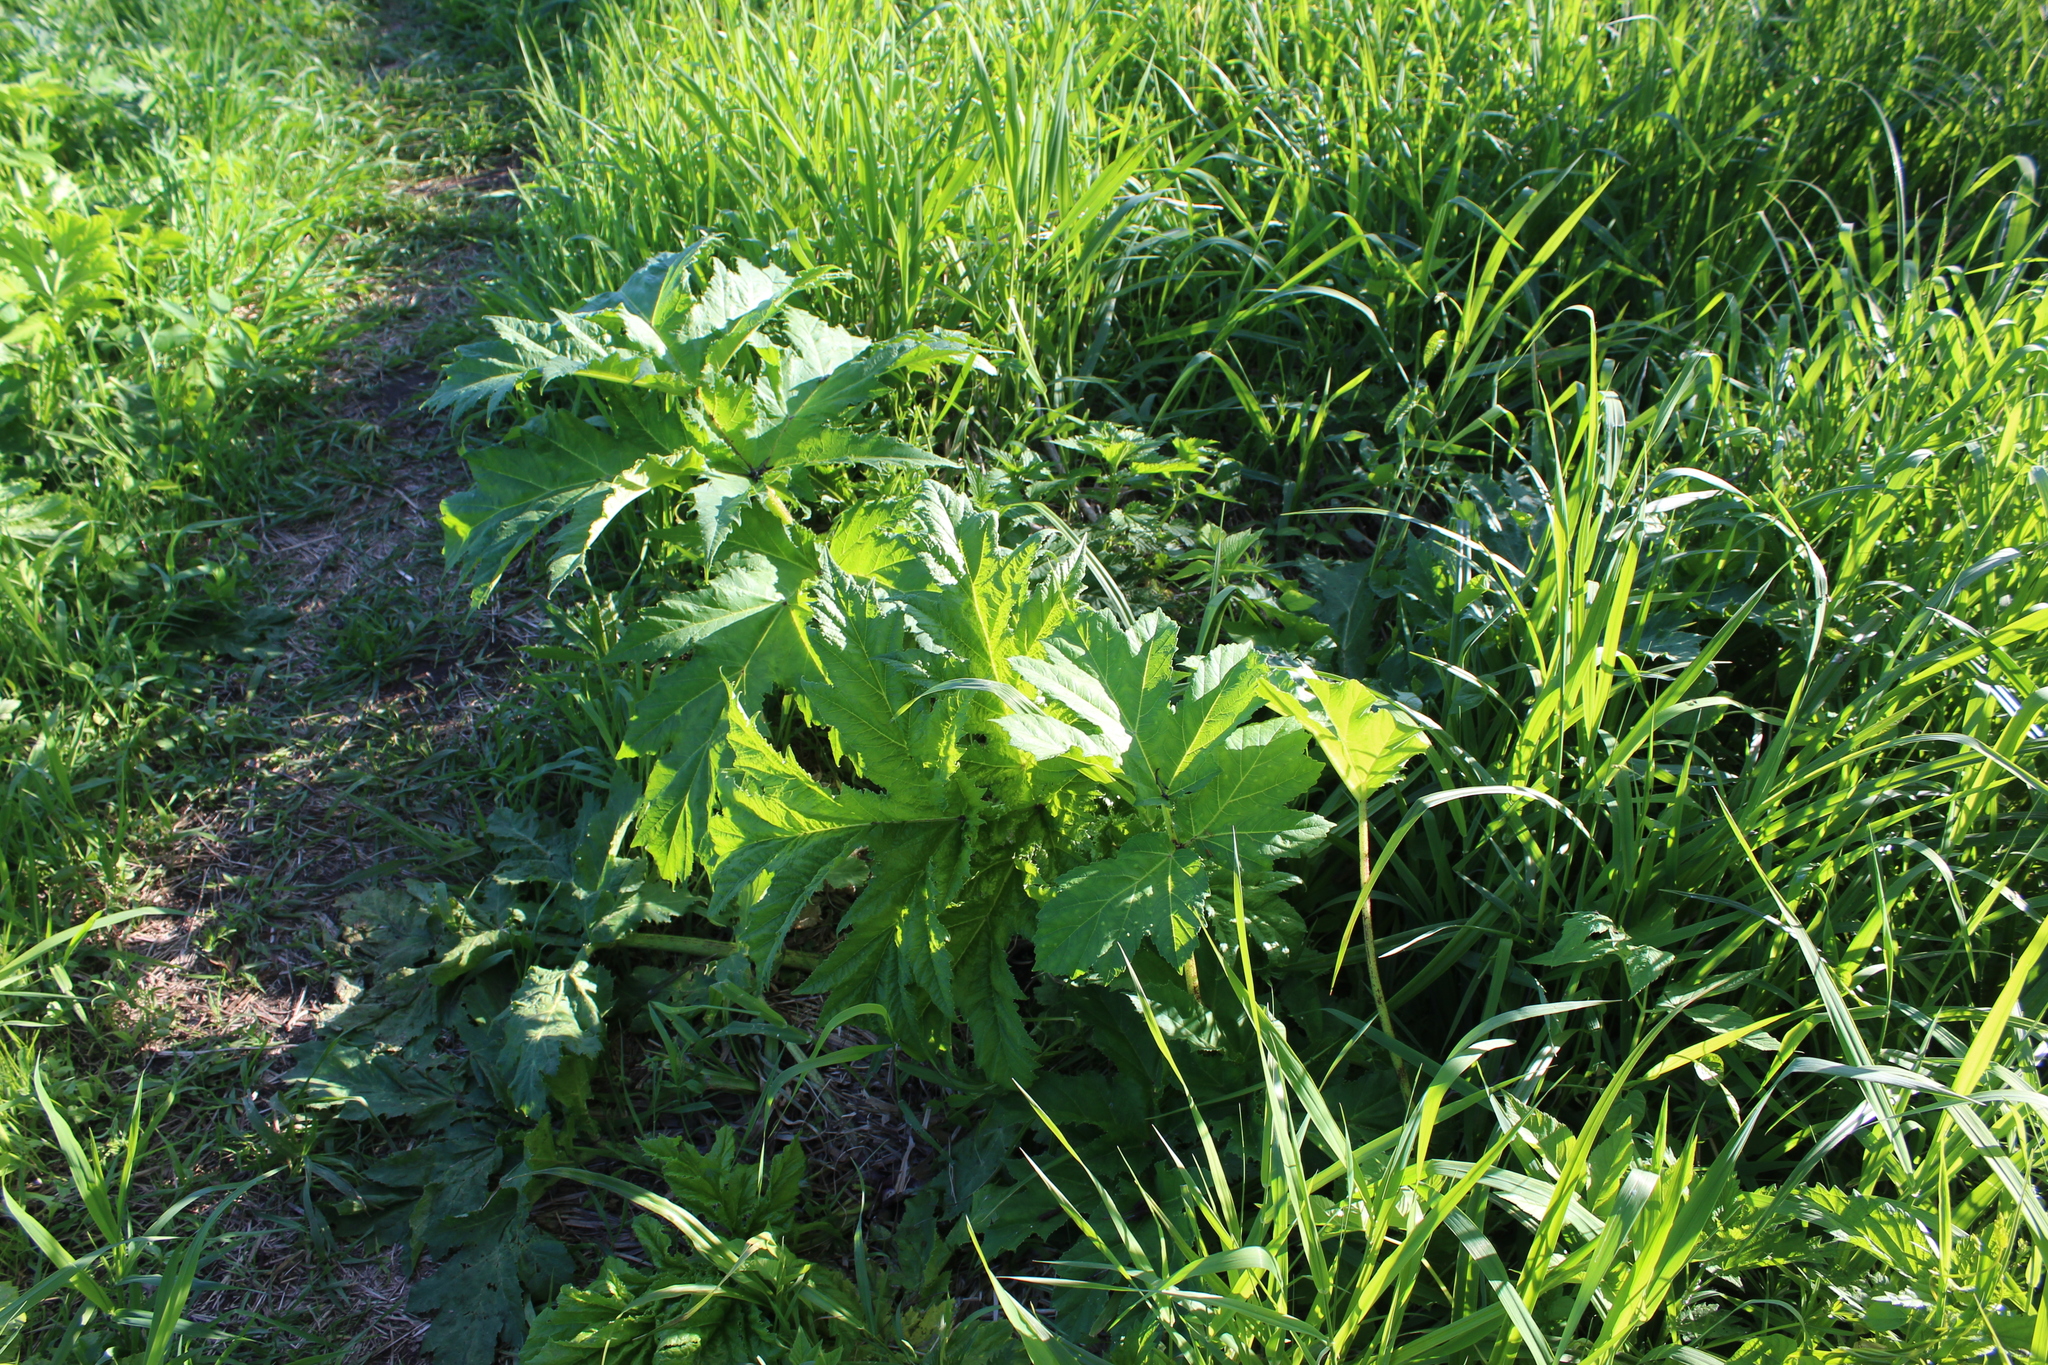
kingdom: Plantae
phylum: Tracheophyta
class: Magnoliopsida
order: Apiales
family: Apiaceae
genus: Heracleum
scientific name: Heracleum sosnowskyi
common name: Sosnowsky's hogweed
